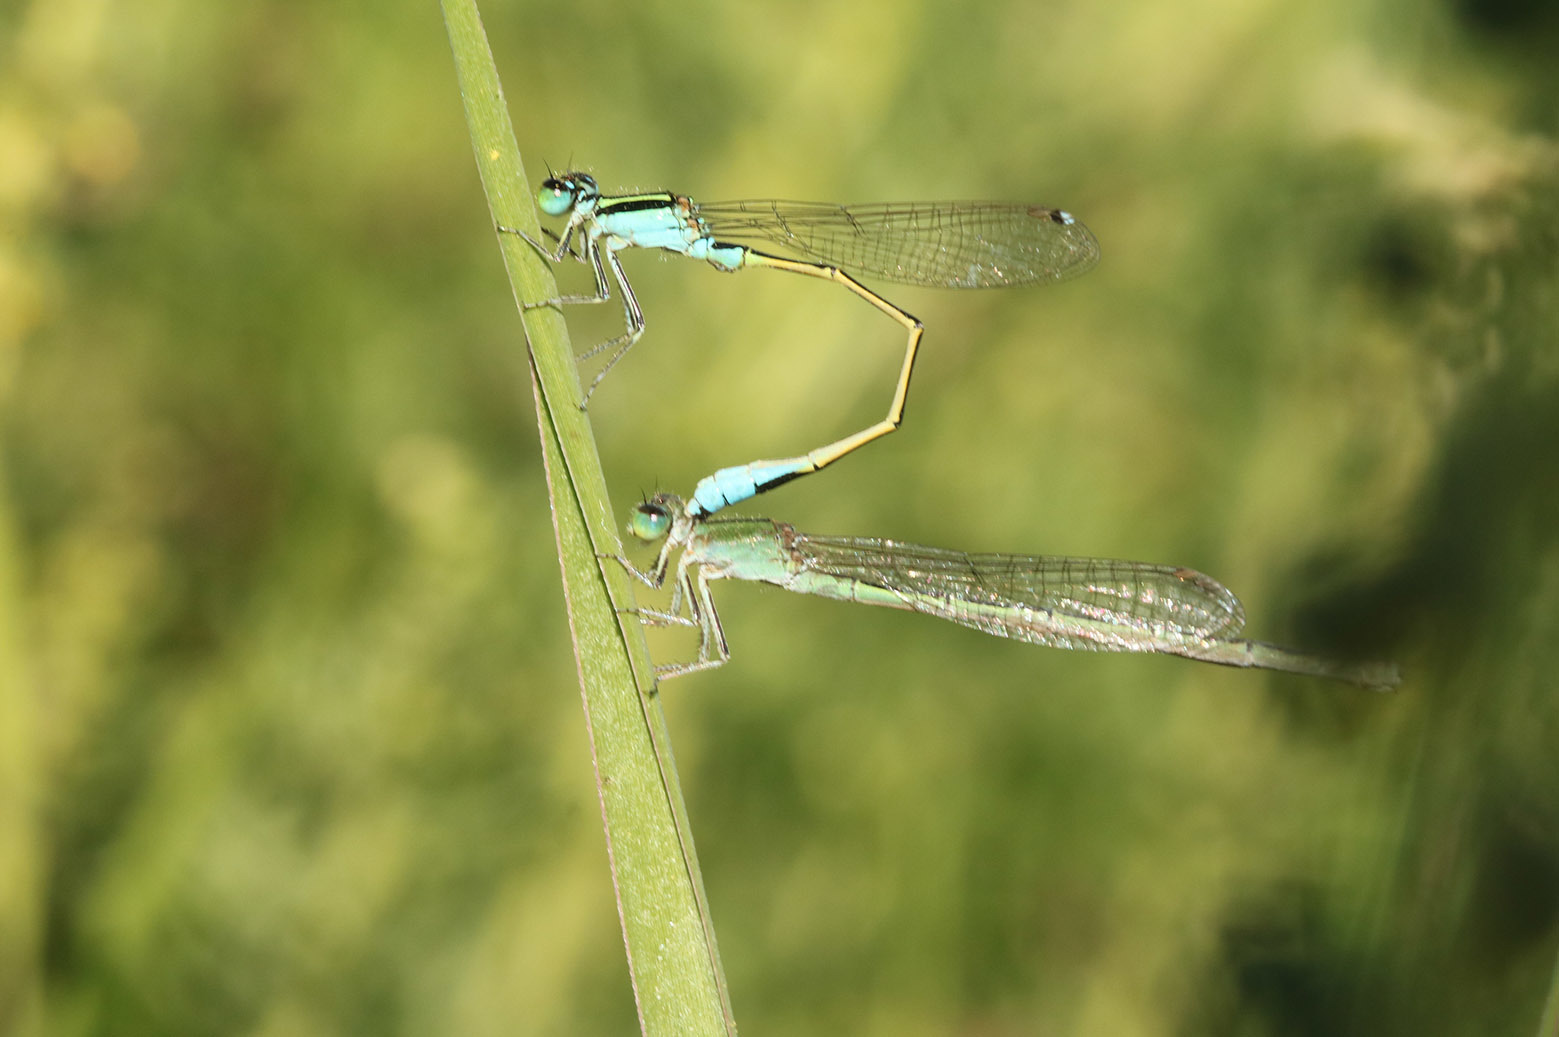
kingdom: Animalia
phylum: Arthropoda
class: Insecta
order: Odonata
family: Coenagrionidae
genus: Ischnura
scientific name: Ischnura fluviatilis
